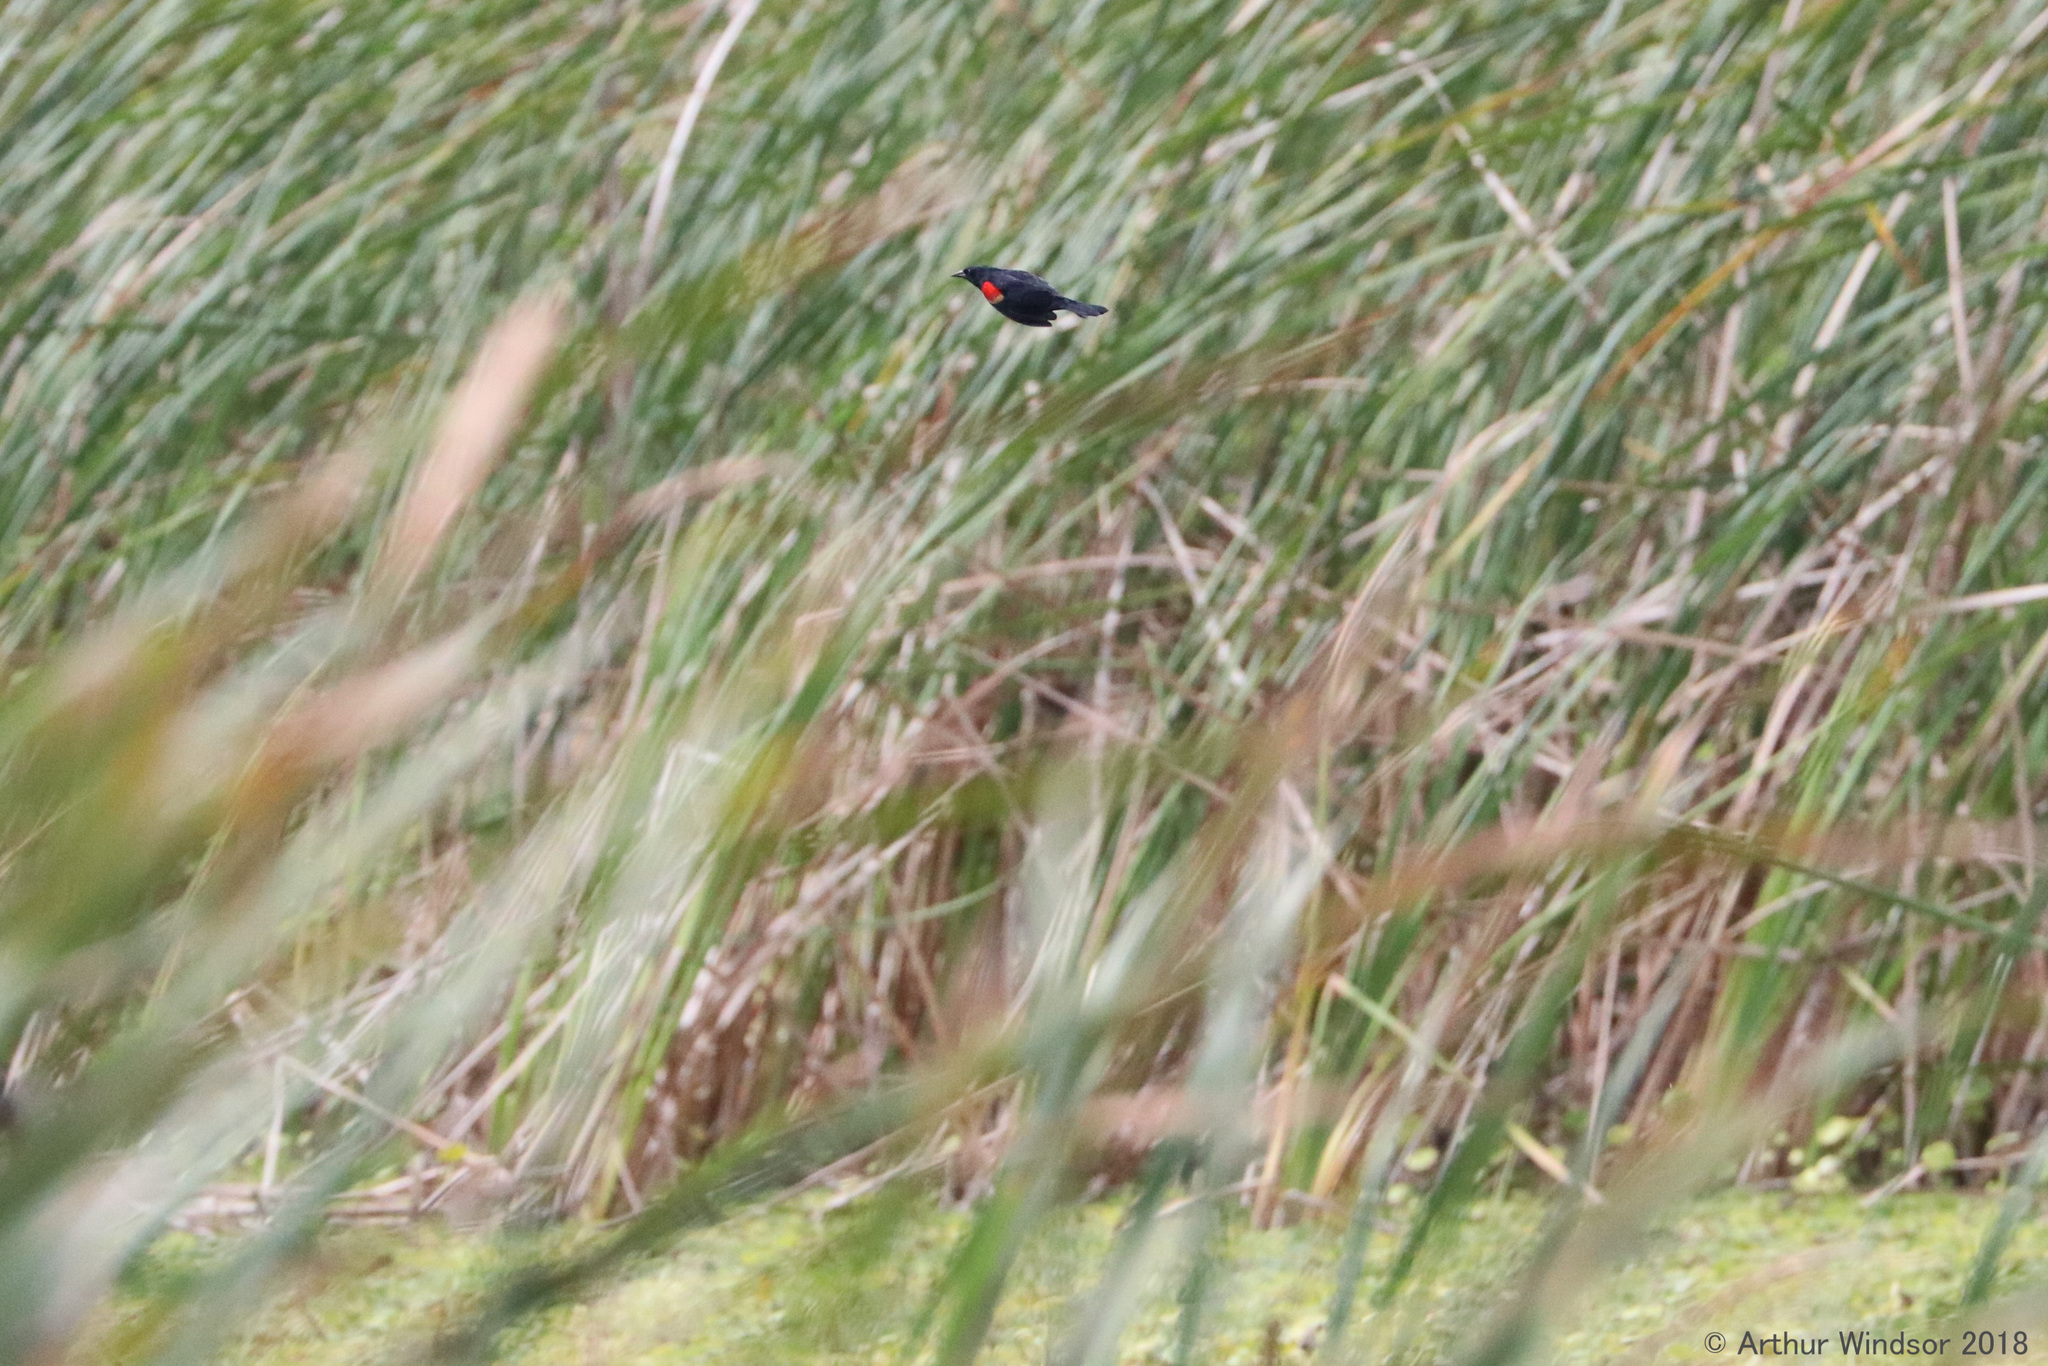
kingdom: Animalia
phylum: Chordata
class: Aves
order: Passeriformes
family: Icteridae
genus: Agelaius
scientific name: Agelaius phoeniceus
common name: Red-winged blackbird
